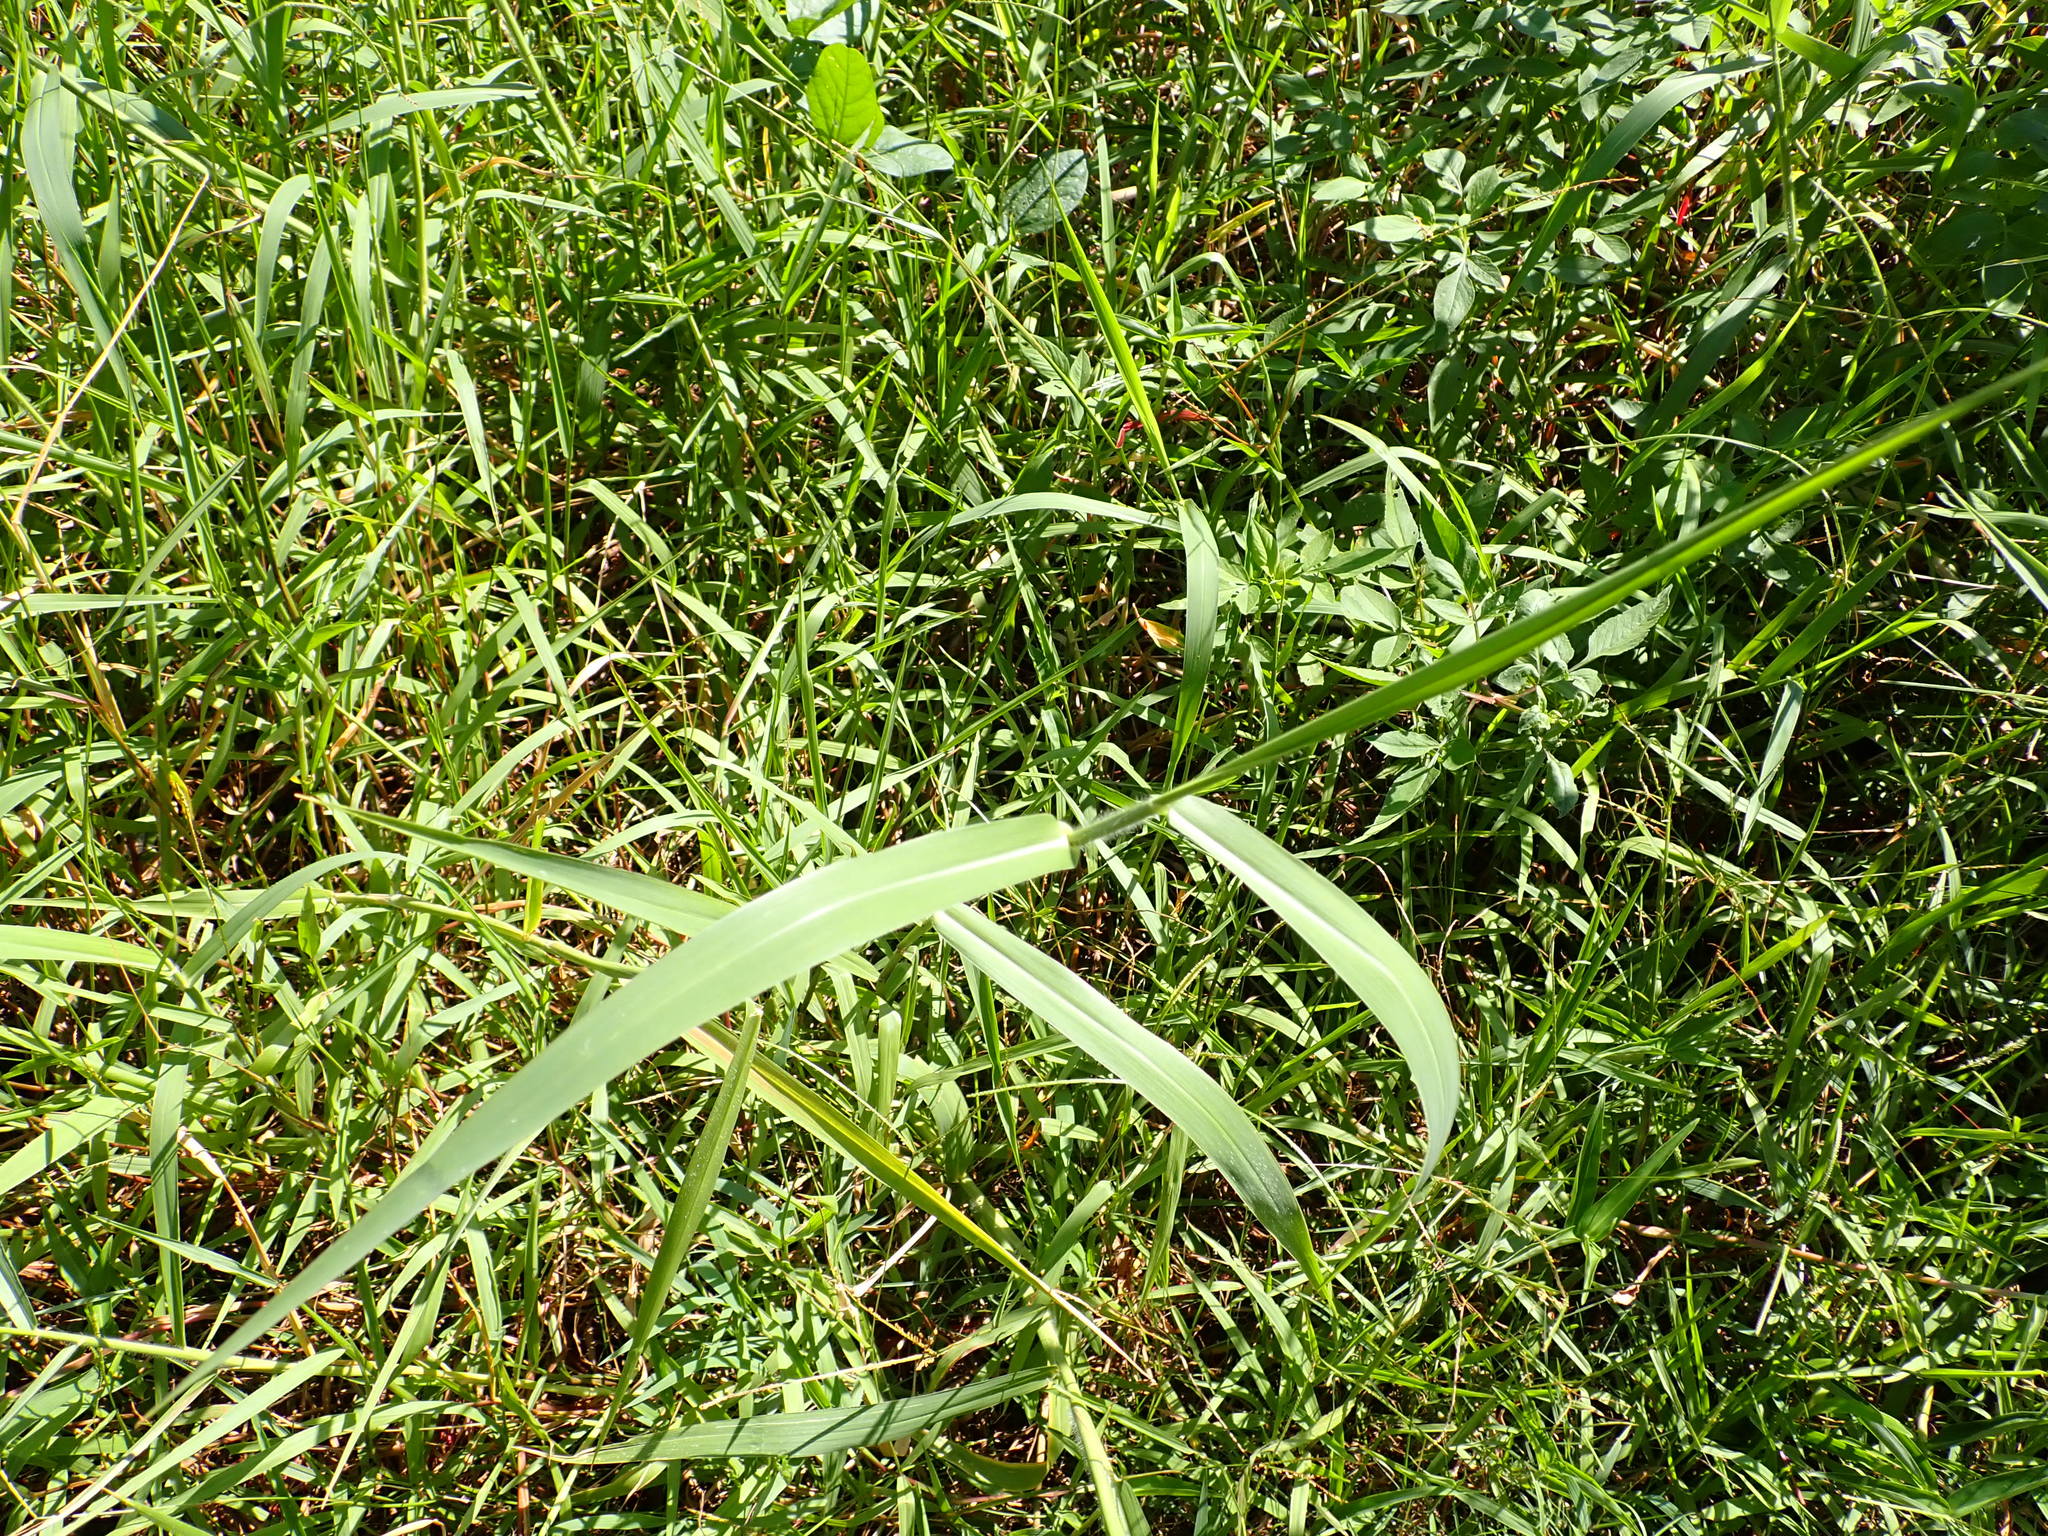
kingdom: Plantae
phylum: Tracheophyta
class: Liliopsida
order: Poales
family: Poaceae
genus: Urochloa
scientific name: Urochloa mutica
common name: Para grass
